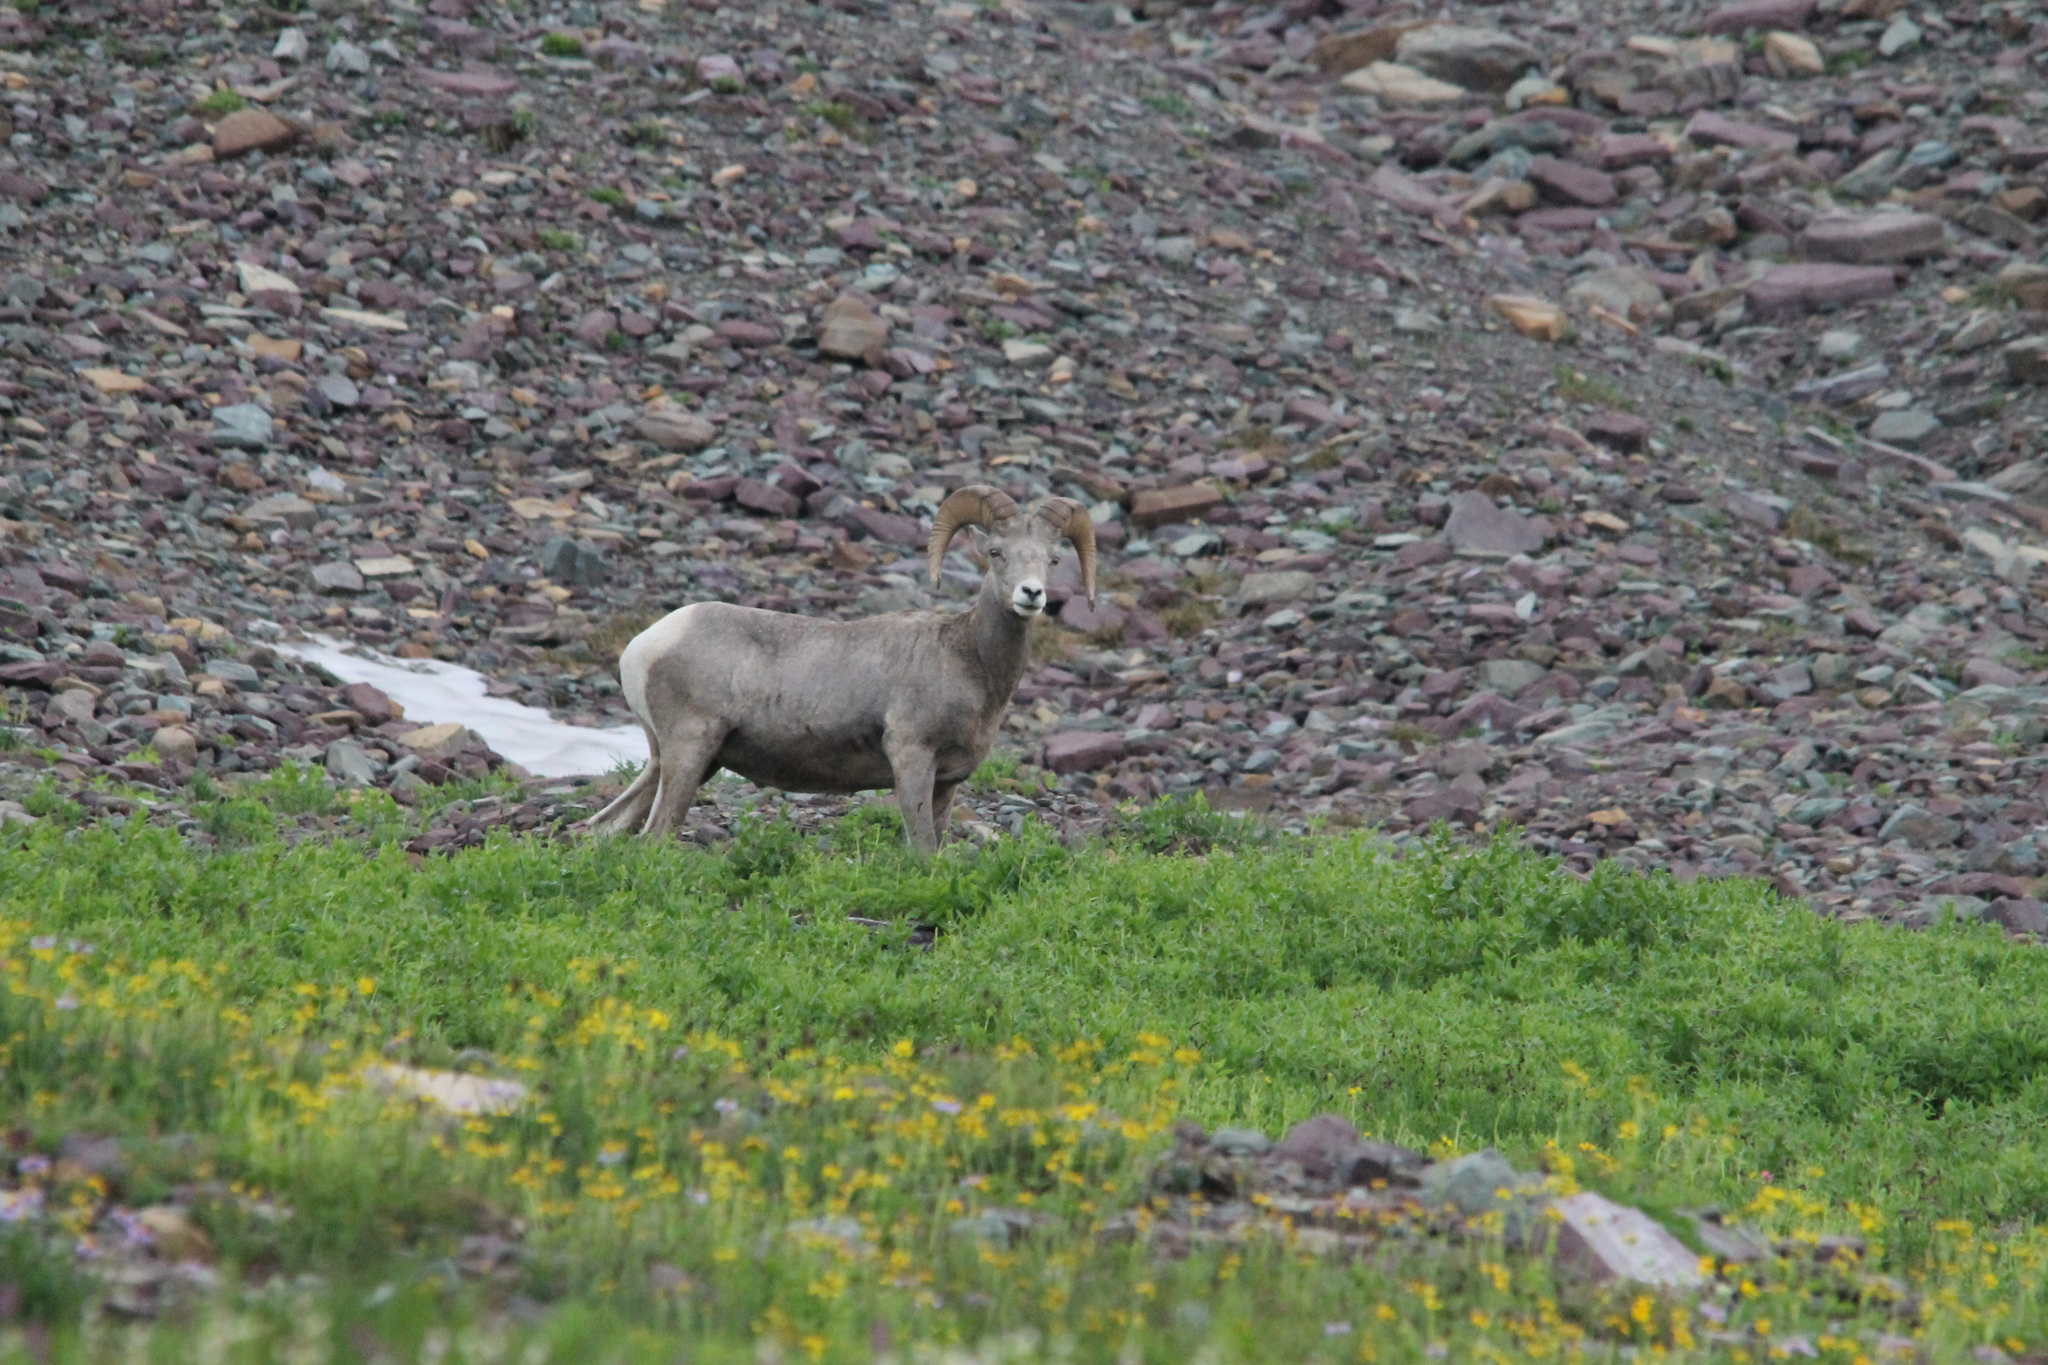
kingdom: Animalia
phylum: Chordata
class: Mammalia
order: Artiodactyla
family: Bovidae
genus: Ovis
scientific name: Ovis canadensis
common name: Bighorn sheep
